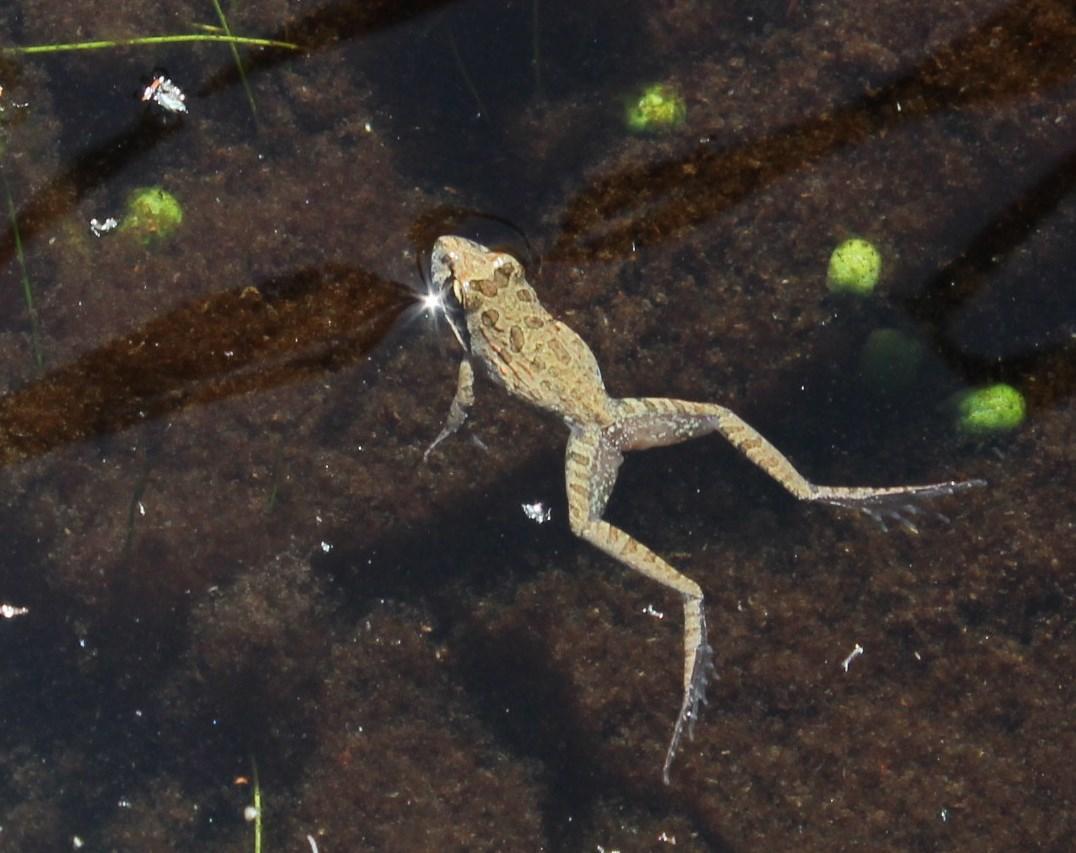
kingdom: Animalia
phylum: Chordata
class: Amphibia
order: Anura
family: Pyxicephalidae
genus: Strongylopus
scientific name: Strongylopus grayii
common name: Gray's stream frog
